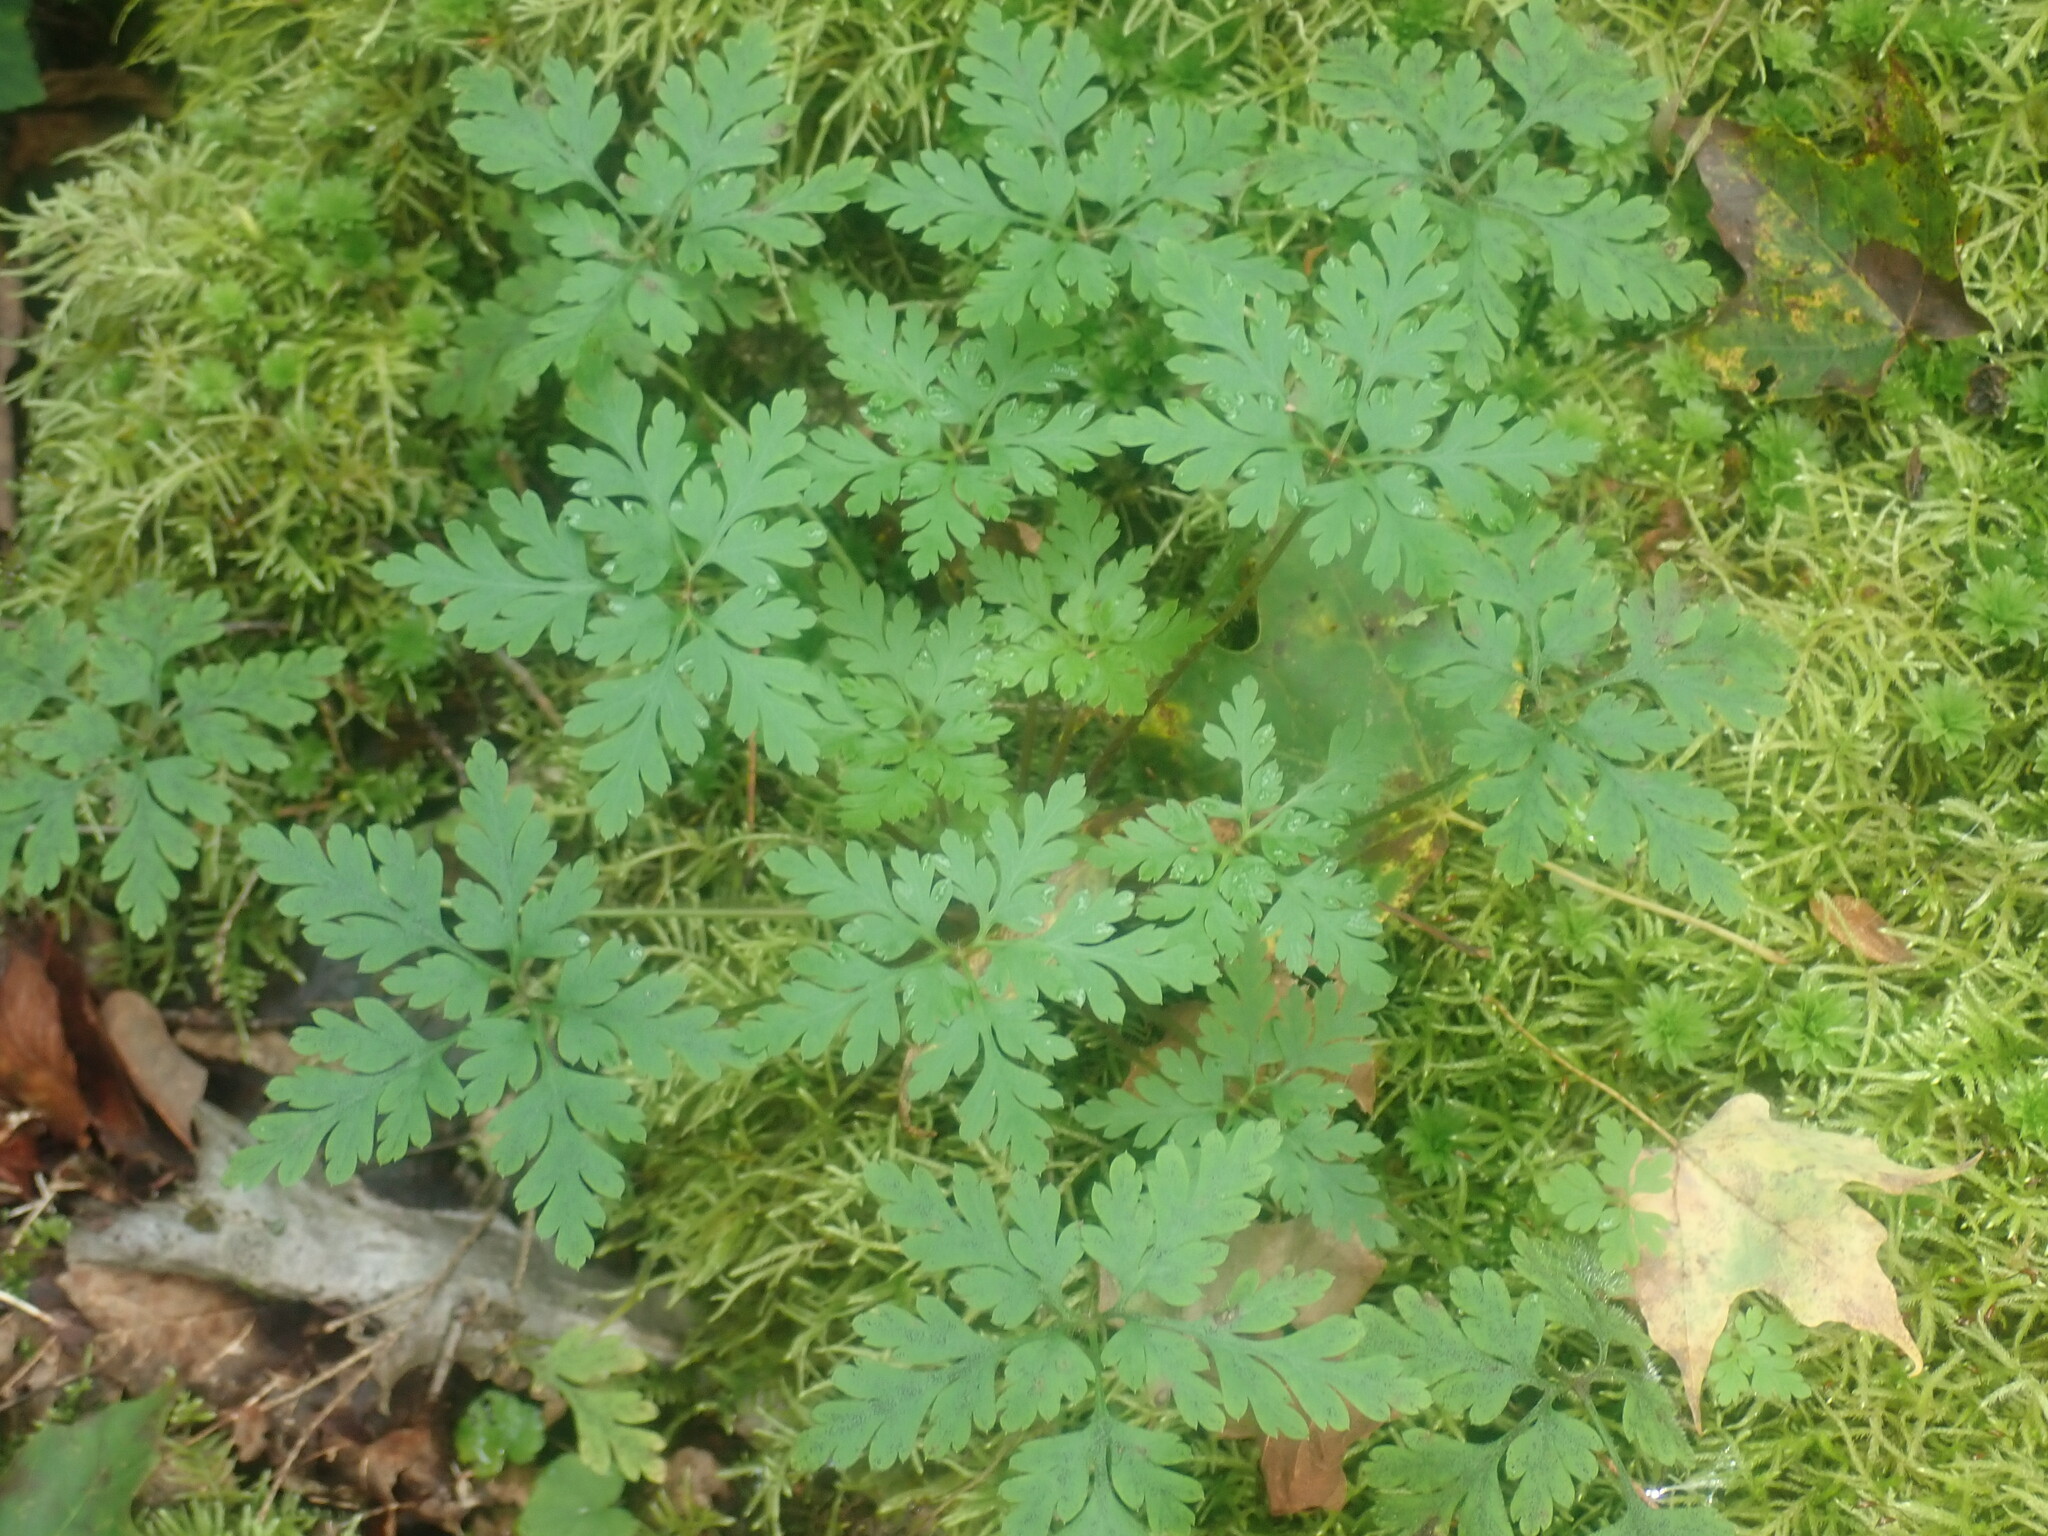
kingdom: Plantae
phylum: Tracheophyta
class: Magnoliopsida
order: Geraniales
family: Geraniaceae
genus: Geranium
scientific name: Geranium robertianum
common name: Herb-robert
